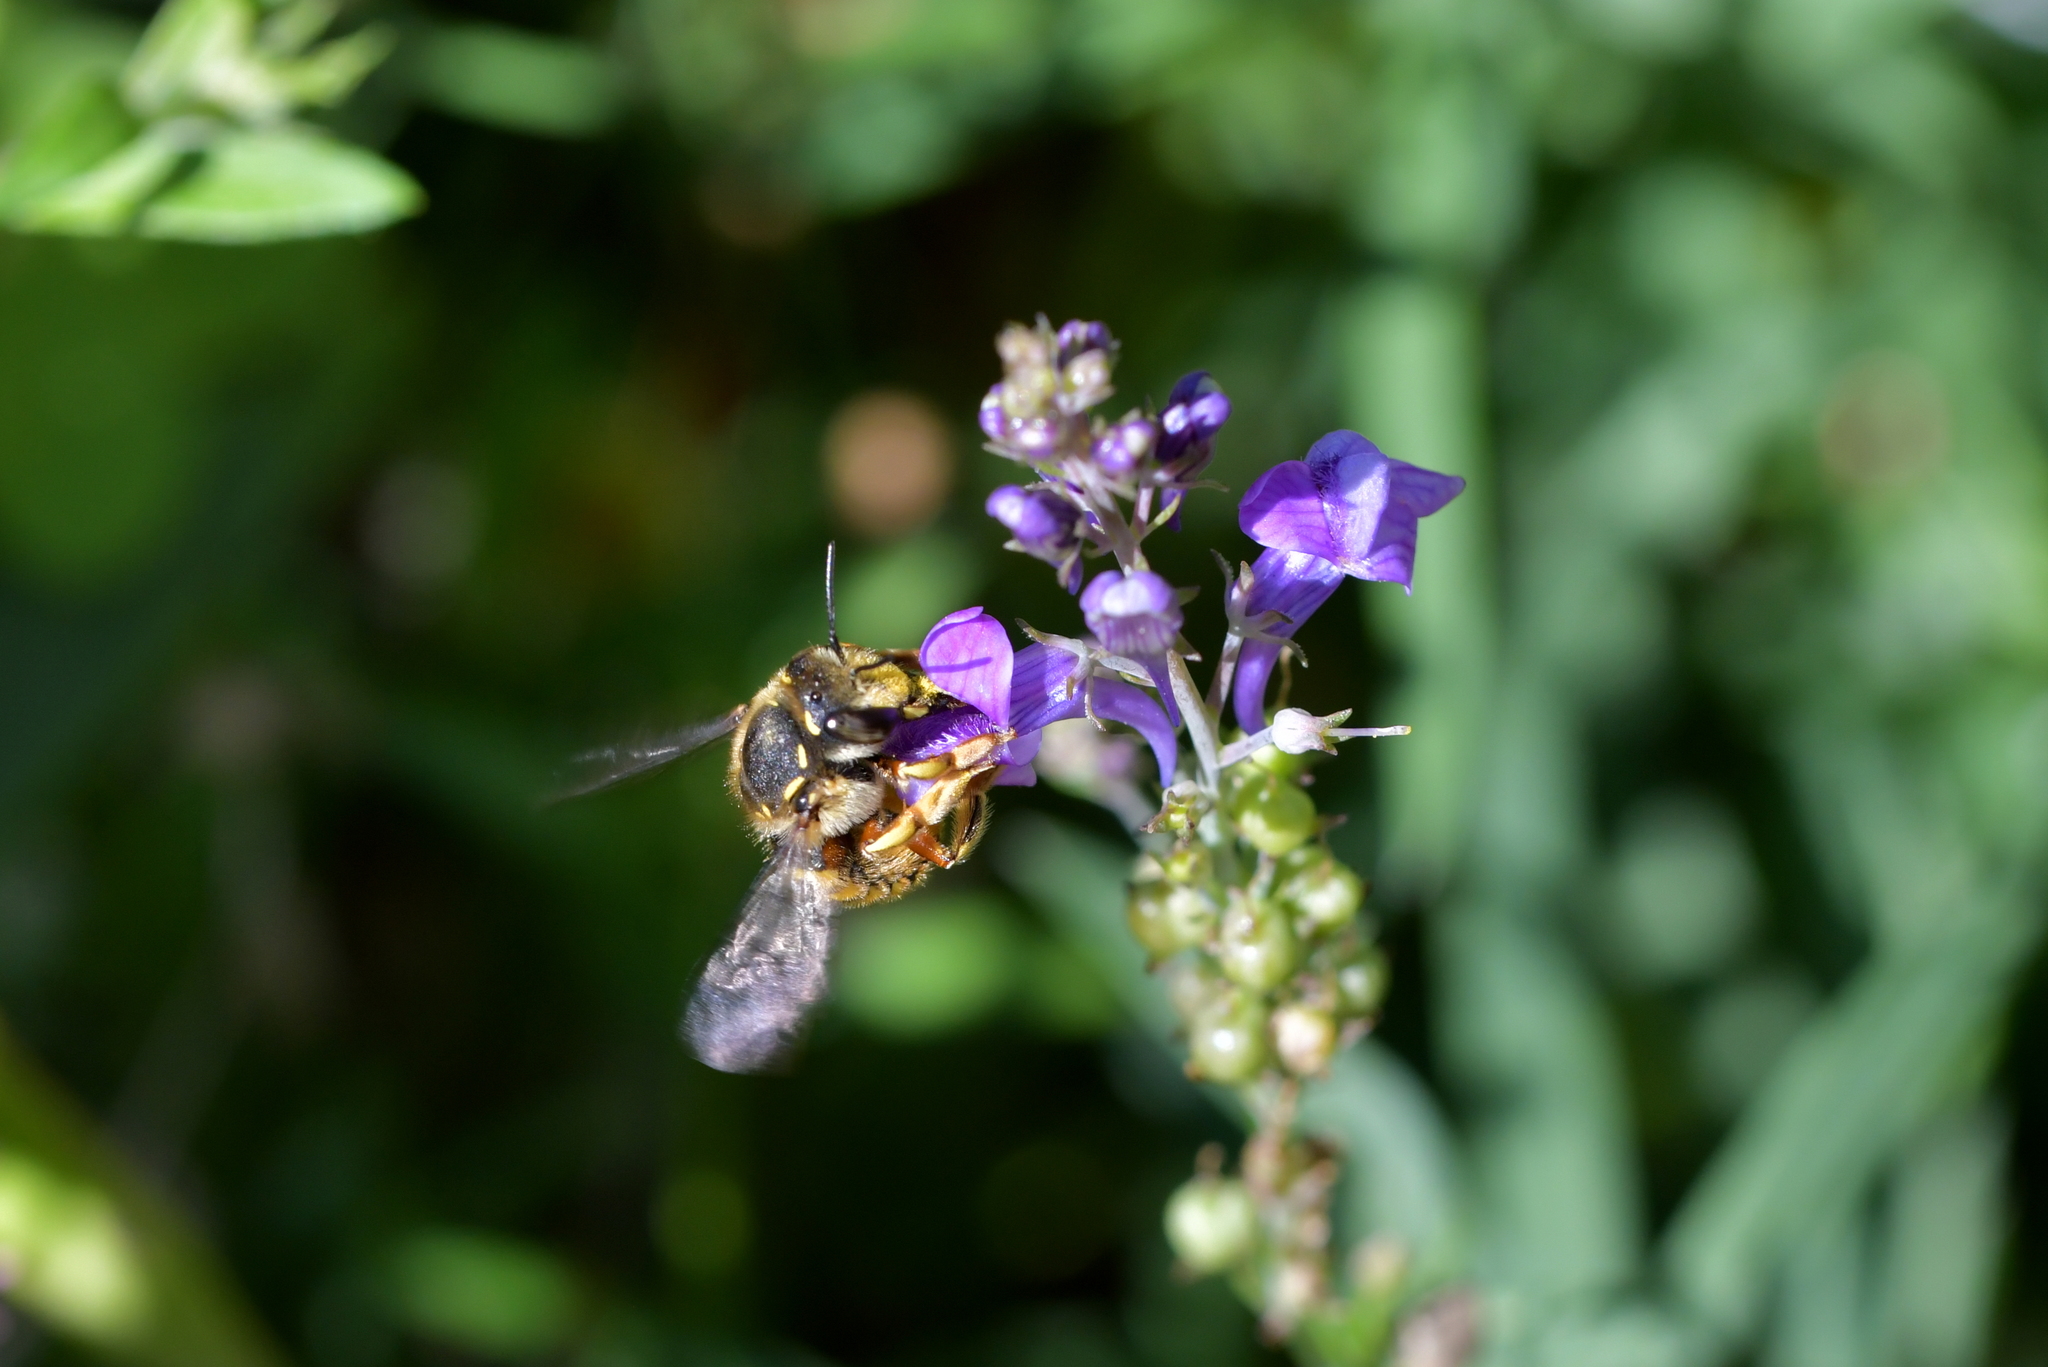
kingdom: Animalia
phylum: Arthropoda
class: Insecta
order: Hymenoptera
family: Megachilidae
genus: Anthidium
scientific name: Anthidium manicatum
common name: Wool carder bee
